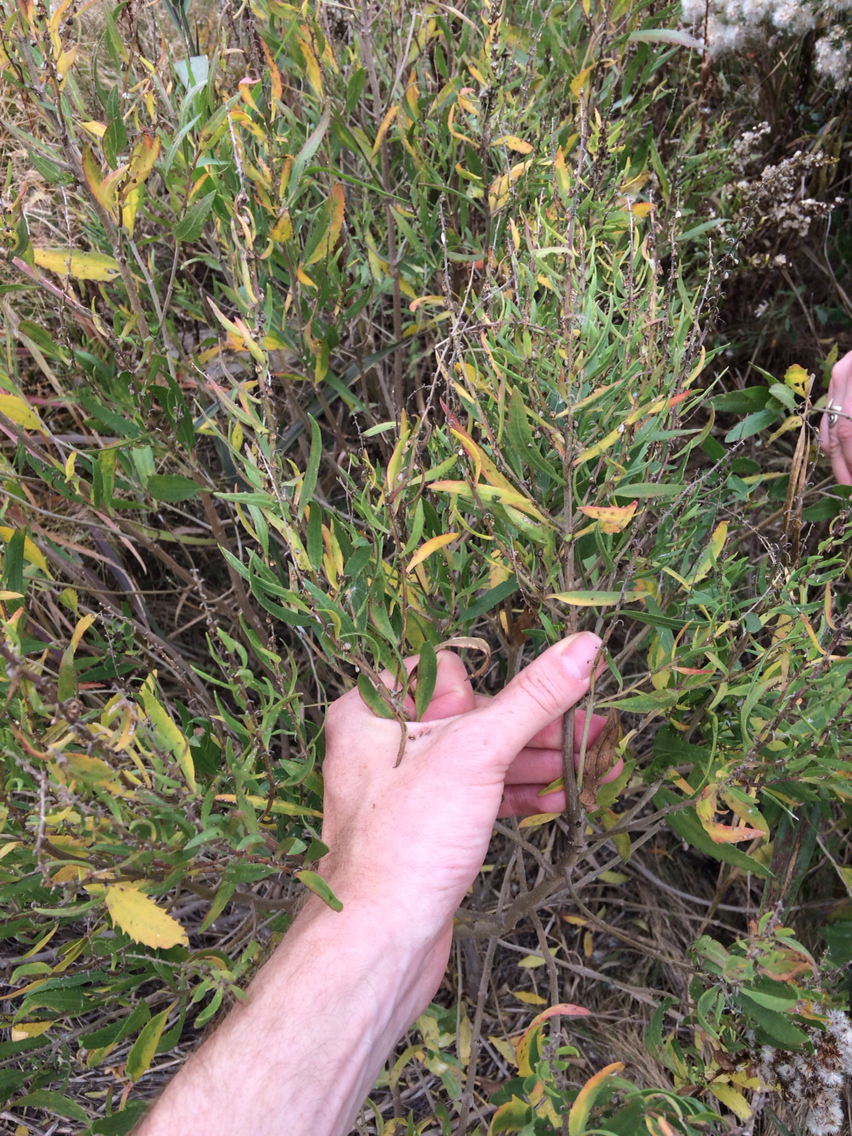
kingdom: Plantae
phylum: Tracheophyta
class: Magnoliopsida
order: Asterales
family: Asteraceae
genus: Baccharis
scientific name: Baccharis halimifolia
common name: Eastern baccharis
